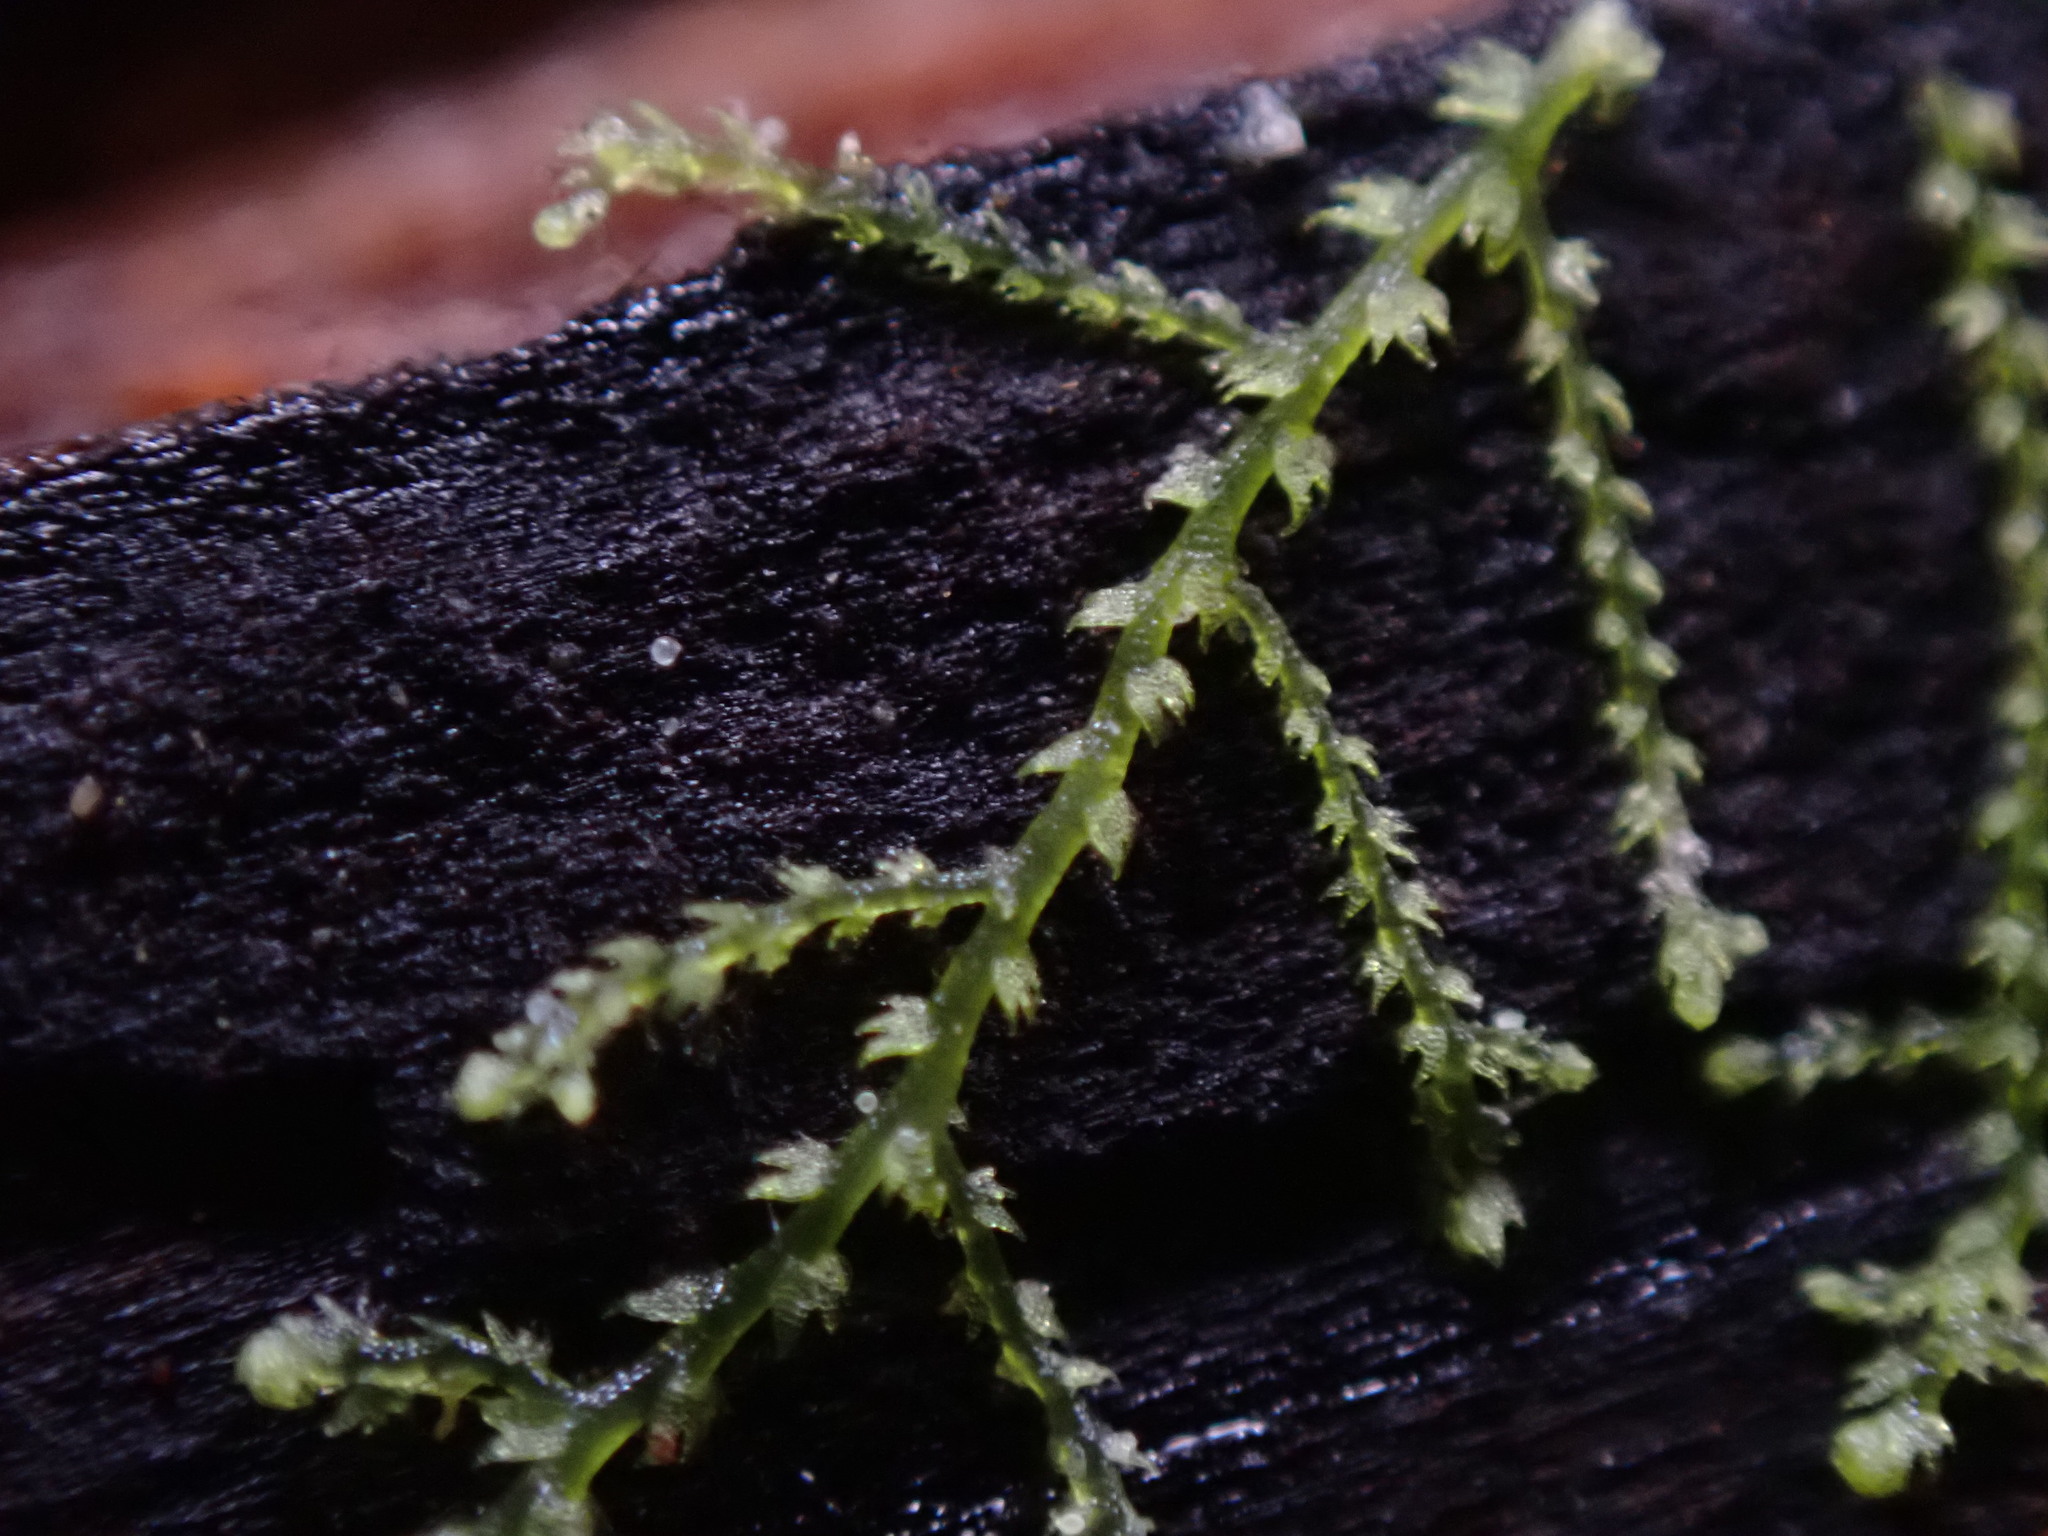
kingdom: Plantae
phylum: Marchantiophyta
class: Jungermanniopsida
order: Jungermanniales
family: Lepidoziaceae
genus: Lepidozia
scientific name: Lepidozia reptans
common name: Creeping fingerwort
